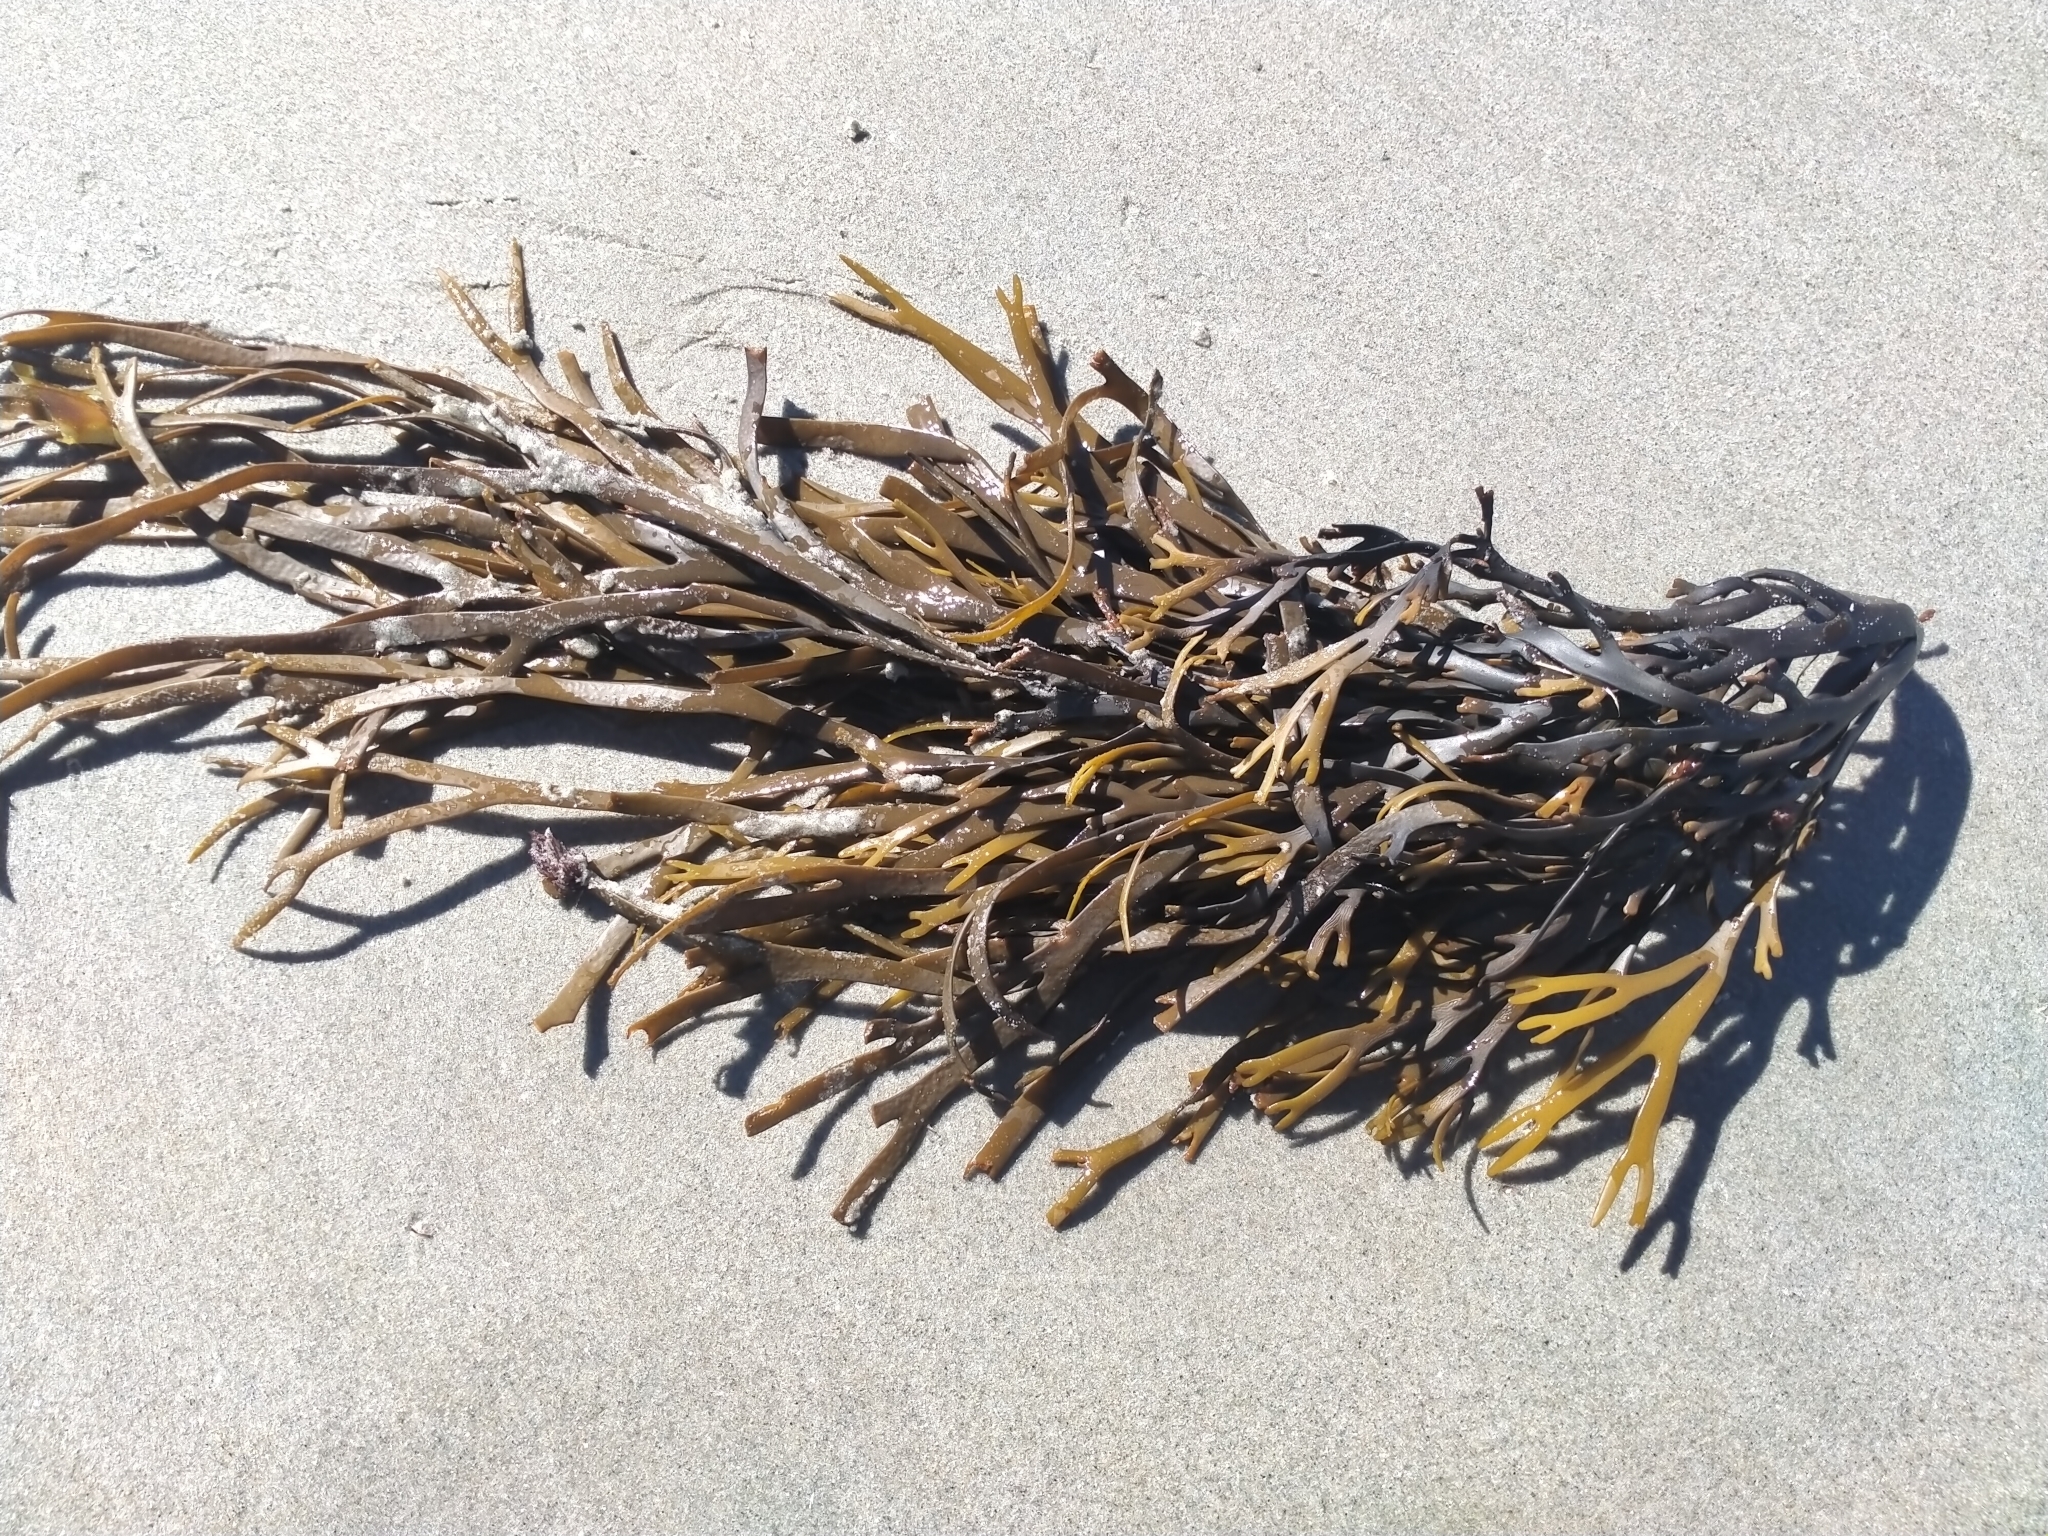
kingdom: Chromista
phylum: Ochrophyta
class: Phaeophyceae
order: Fucales
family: Xiphophoraceae
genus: Xiphophora
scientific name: Xiphophora gladiata
